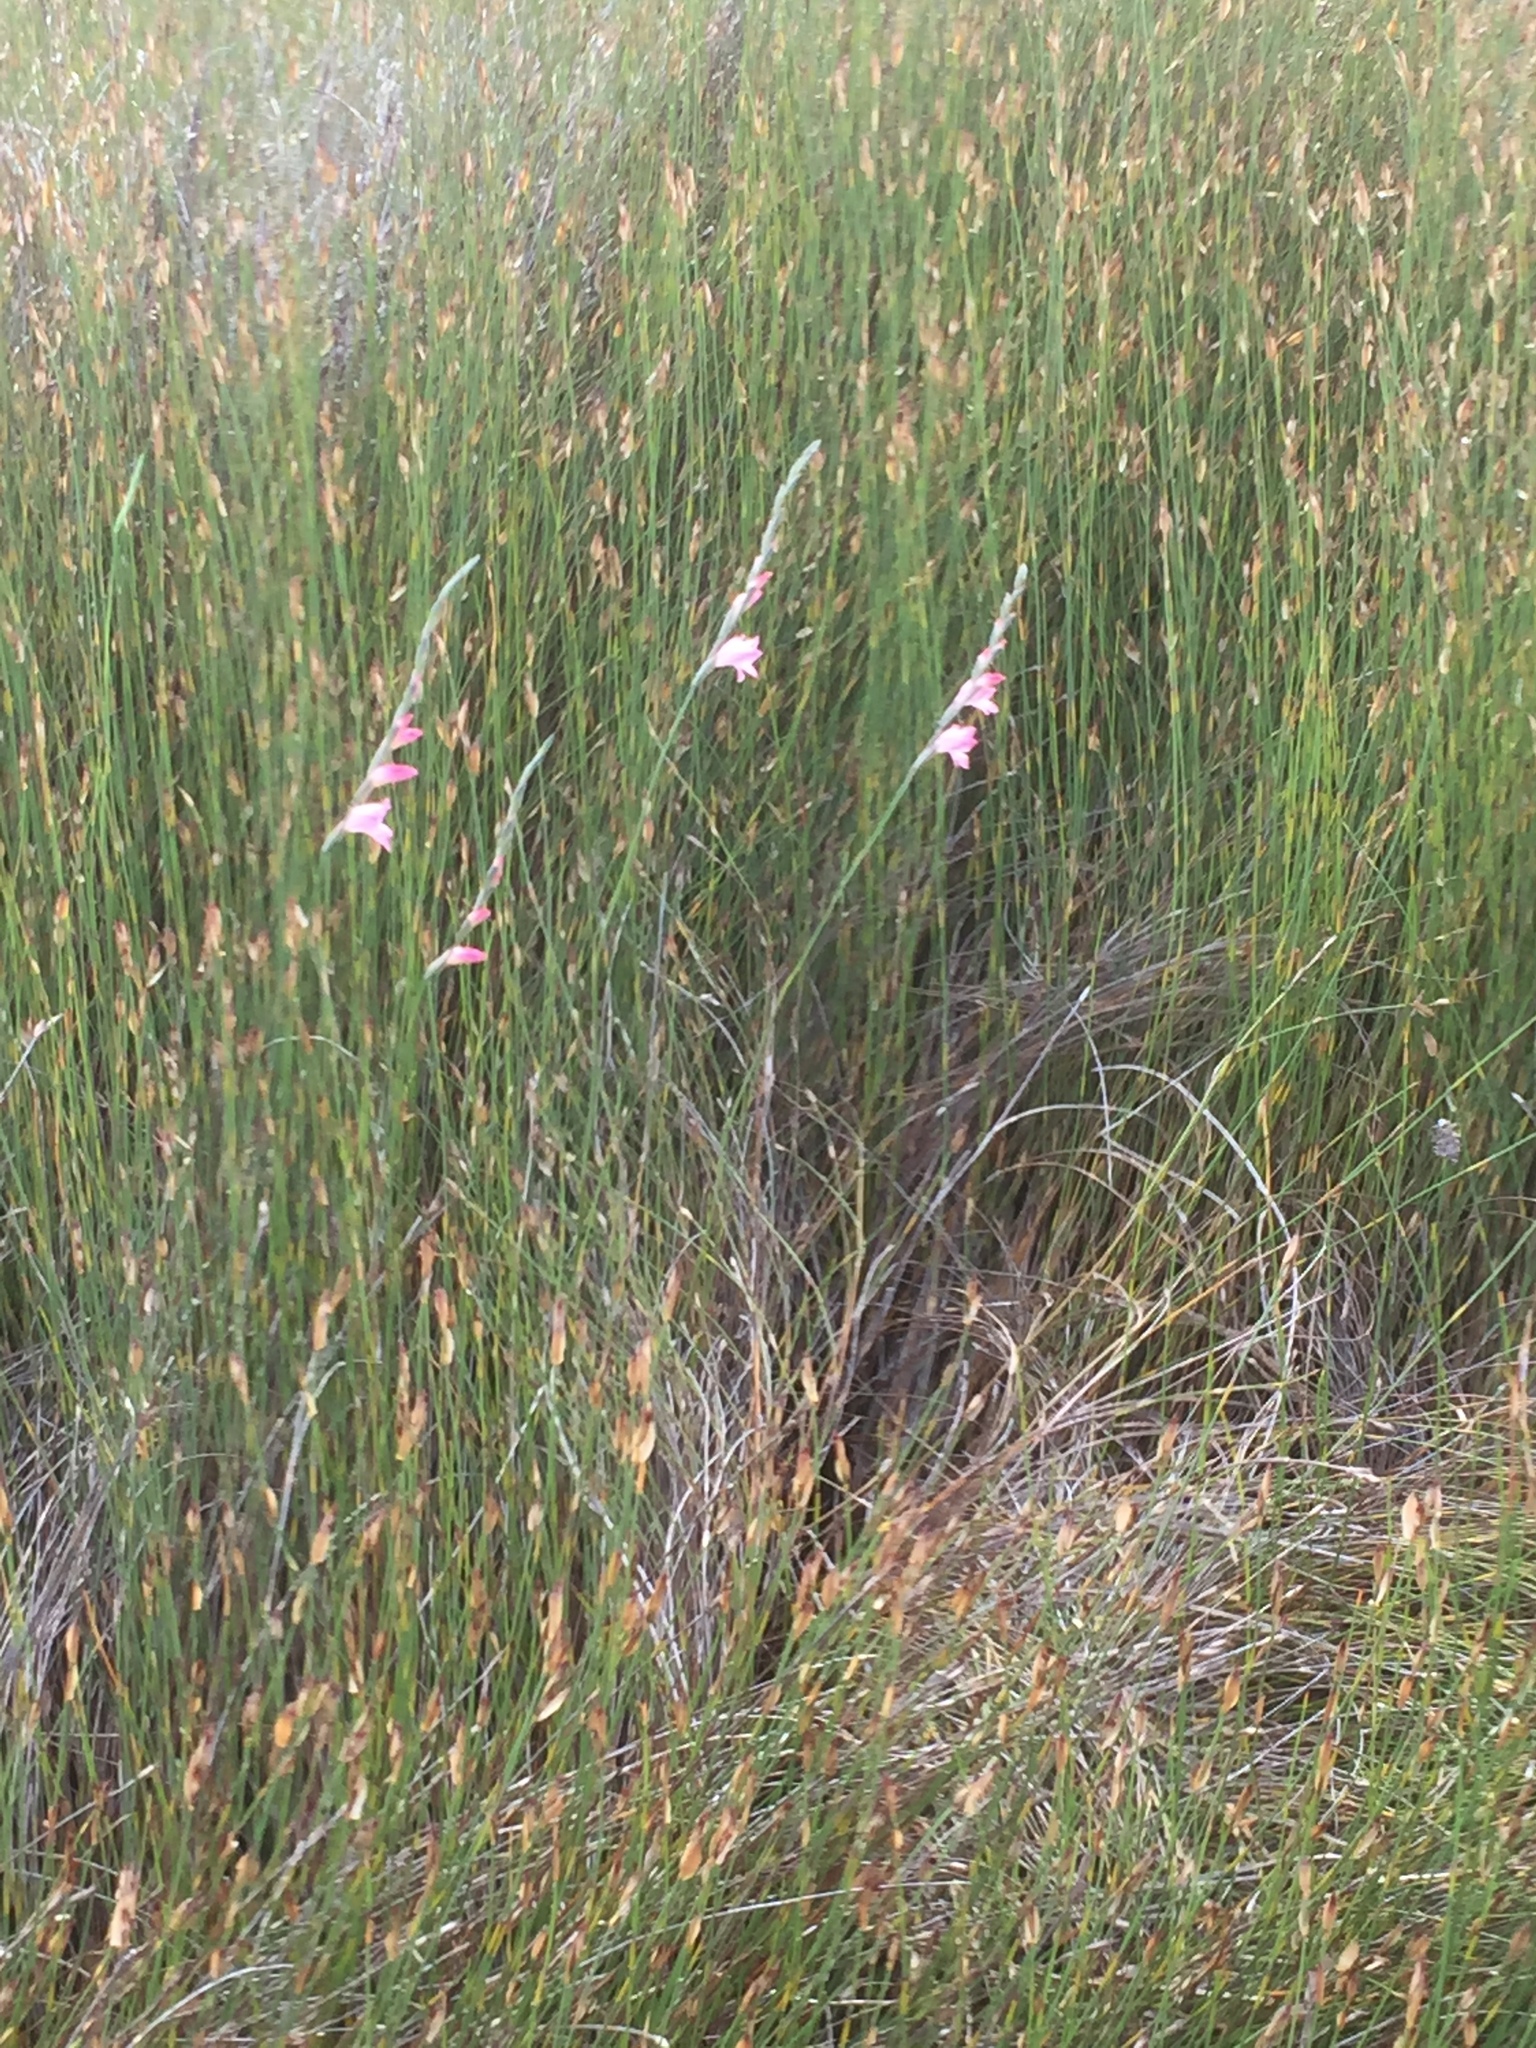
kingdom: Plantae
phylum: Tracheophyta
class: Liliopsida
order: Asparagales
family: Iridaceae
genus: Gladiolus
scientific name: Gladiolus brevifolius
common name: March pypie
